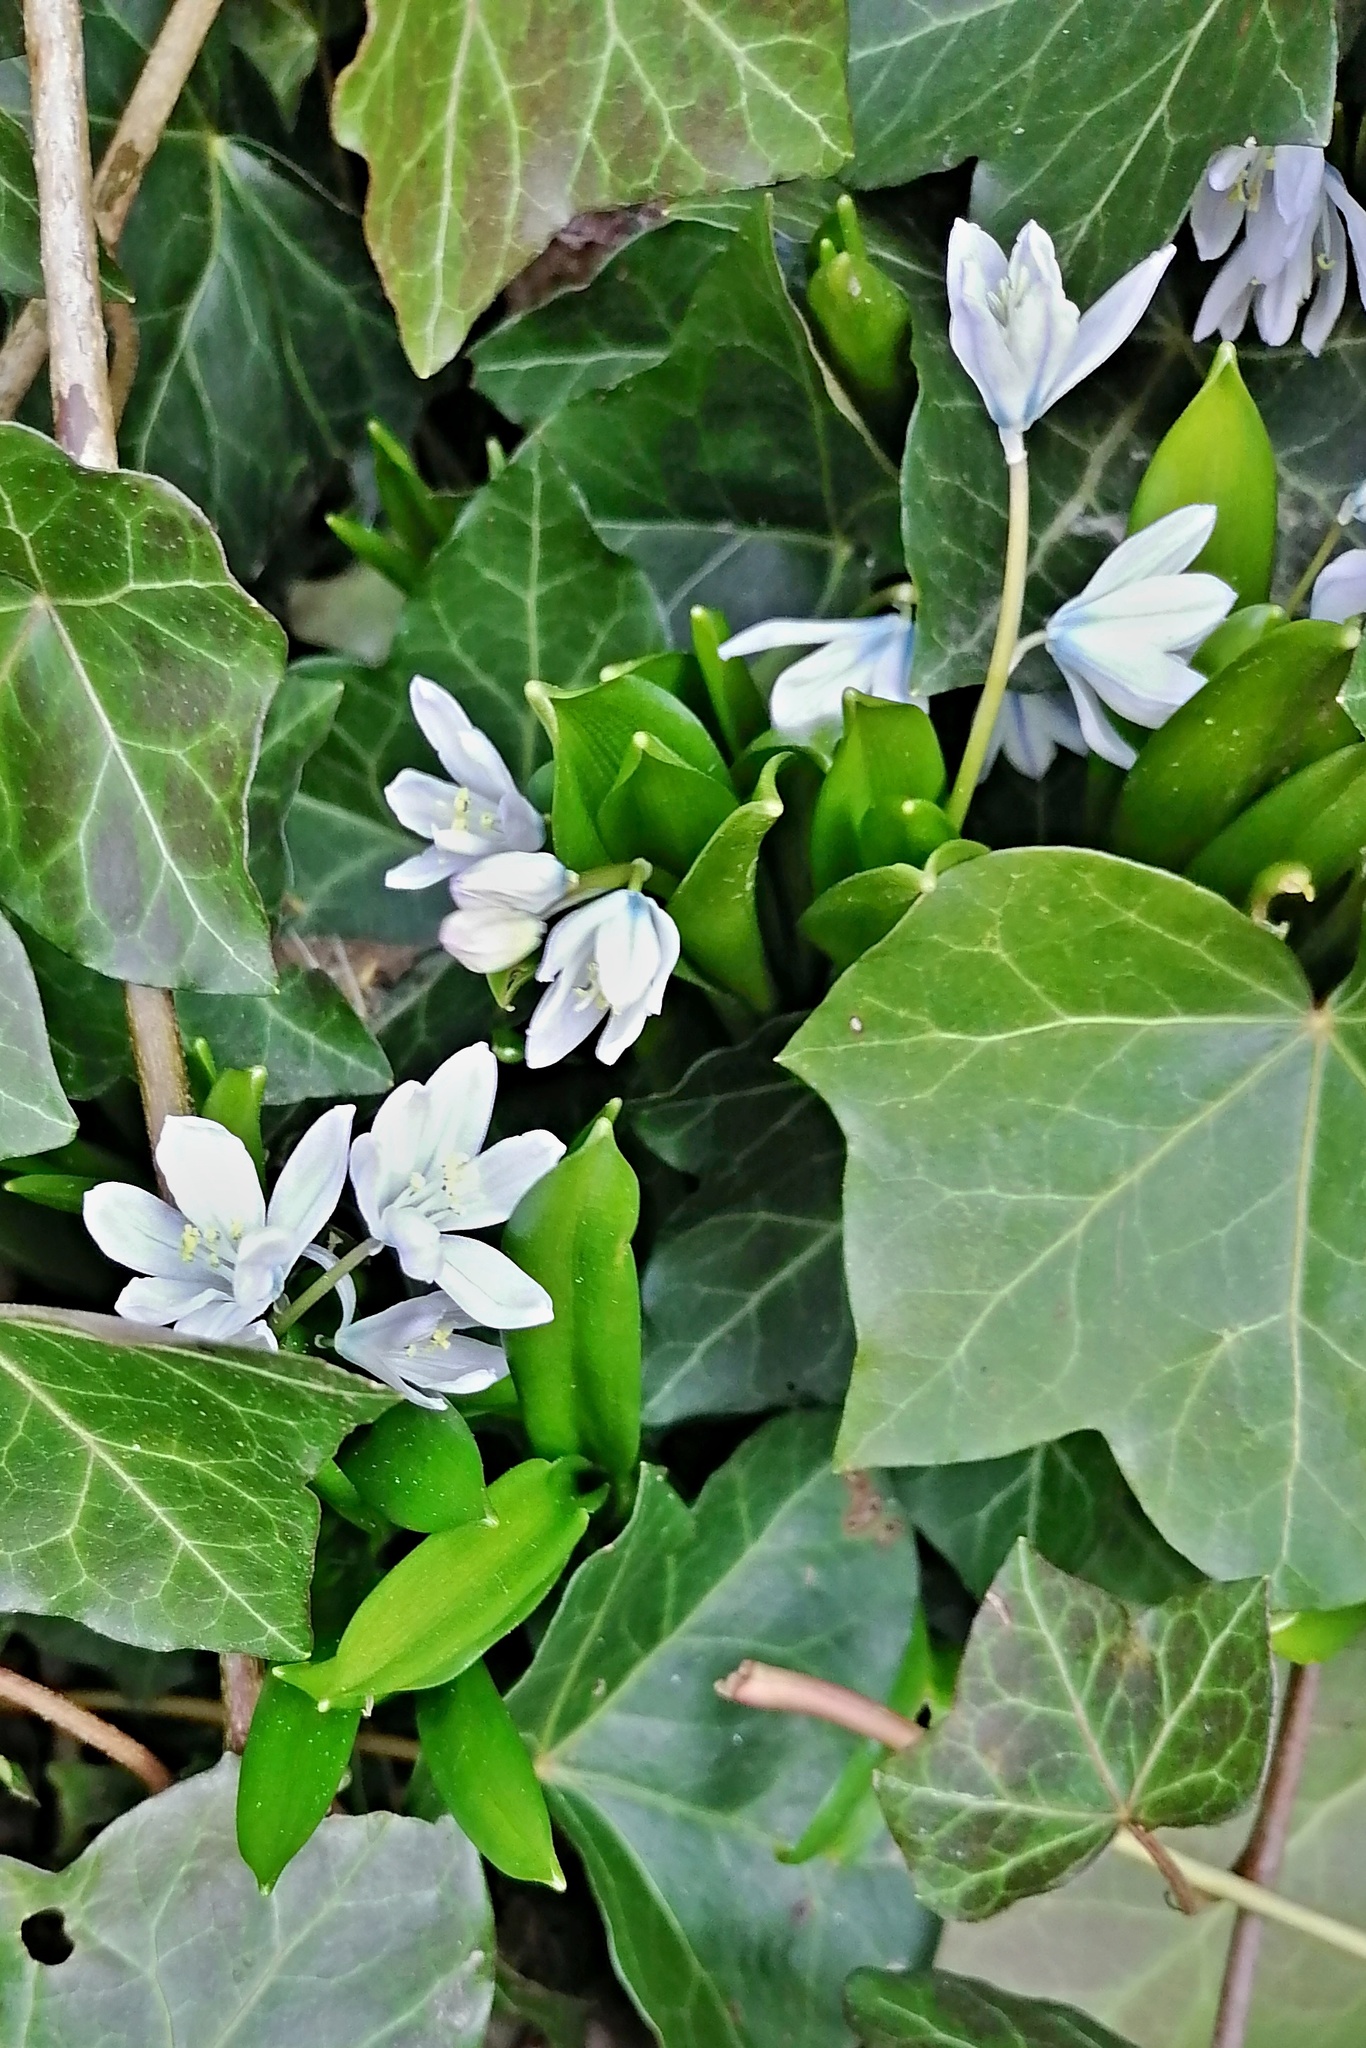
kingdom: Plantae
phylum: Tracheophyta
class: Liliopsida
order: Asparagales
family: Asparagaceae
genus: Scilla
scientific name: Scilla mischtschenkoana
